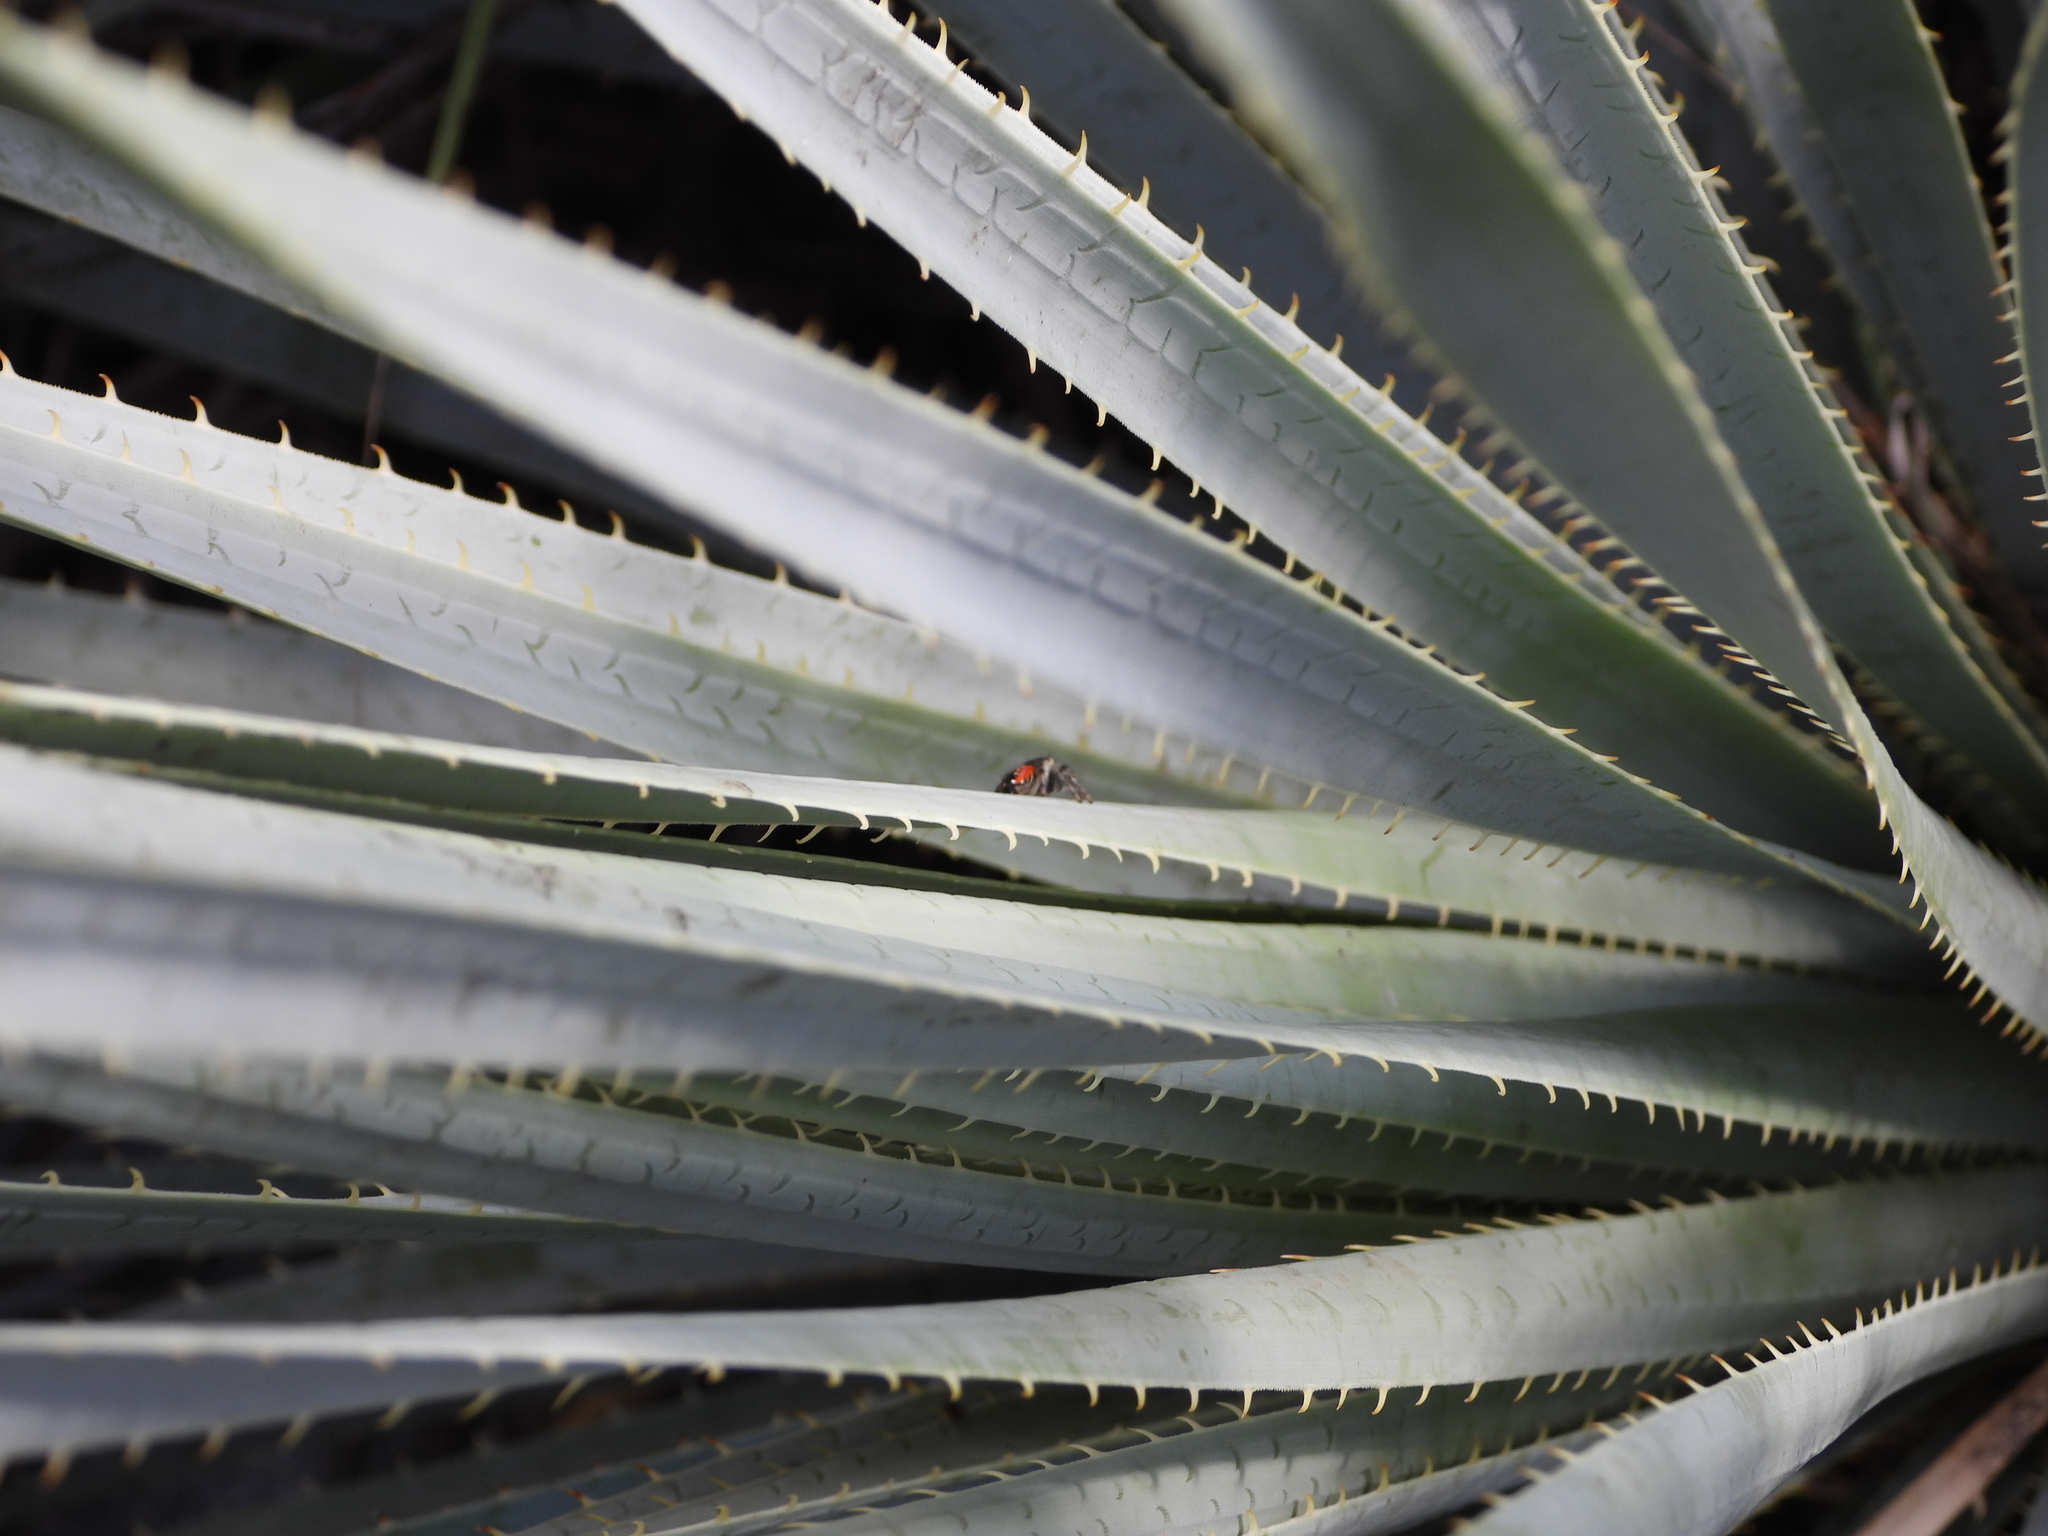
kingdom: Animalia
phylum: Arthropoda
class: Arachnida
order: Araneae
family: Salticidae
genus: Phidippus
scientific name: Phidippus carneus
